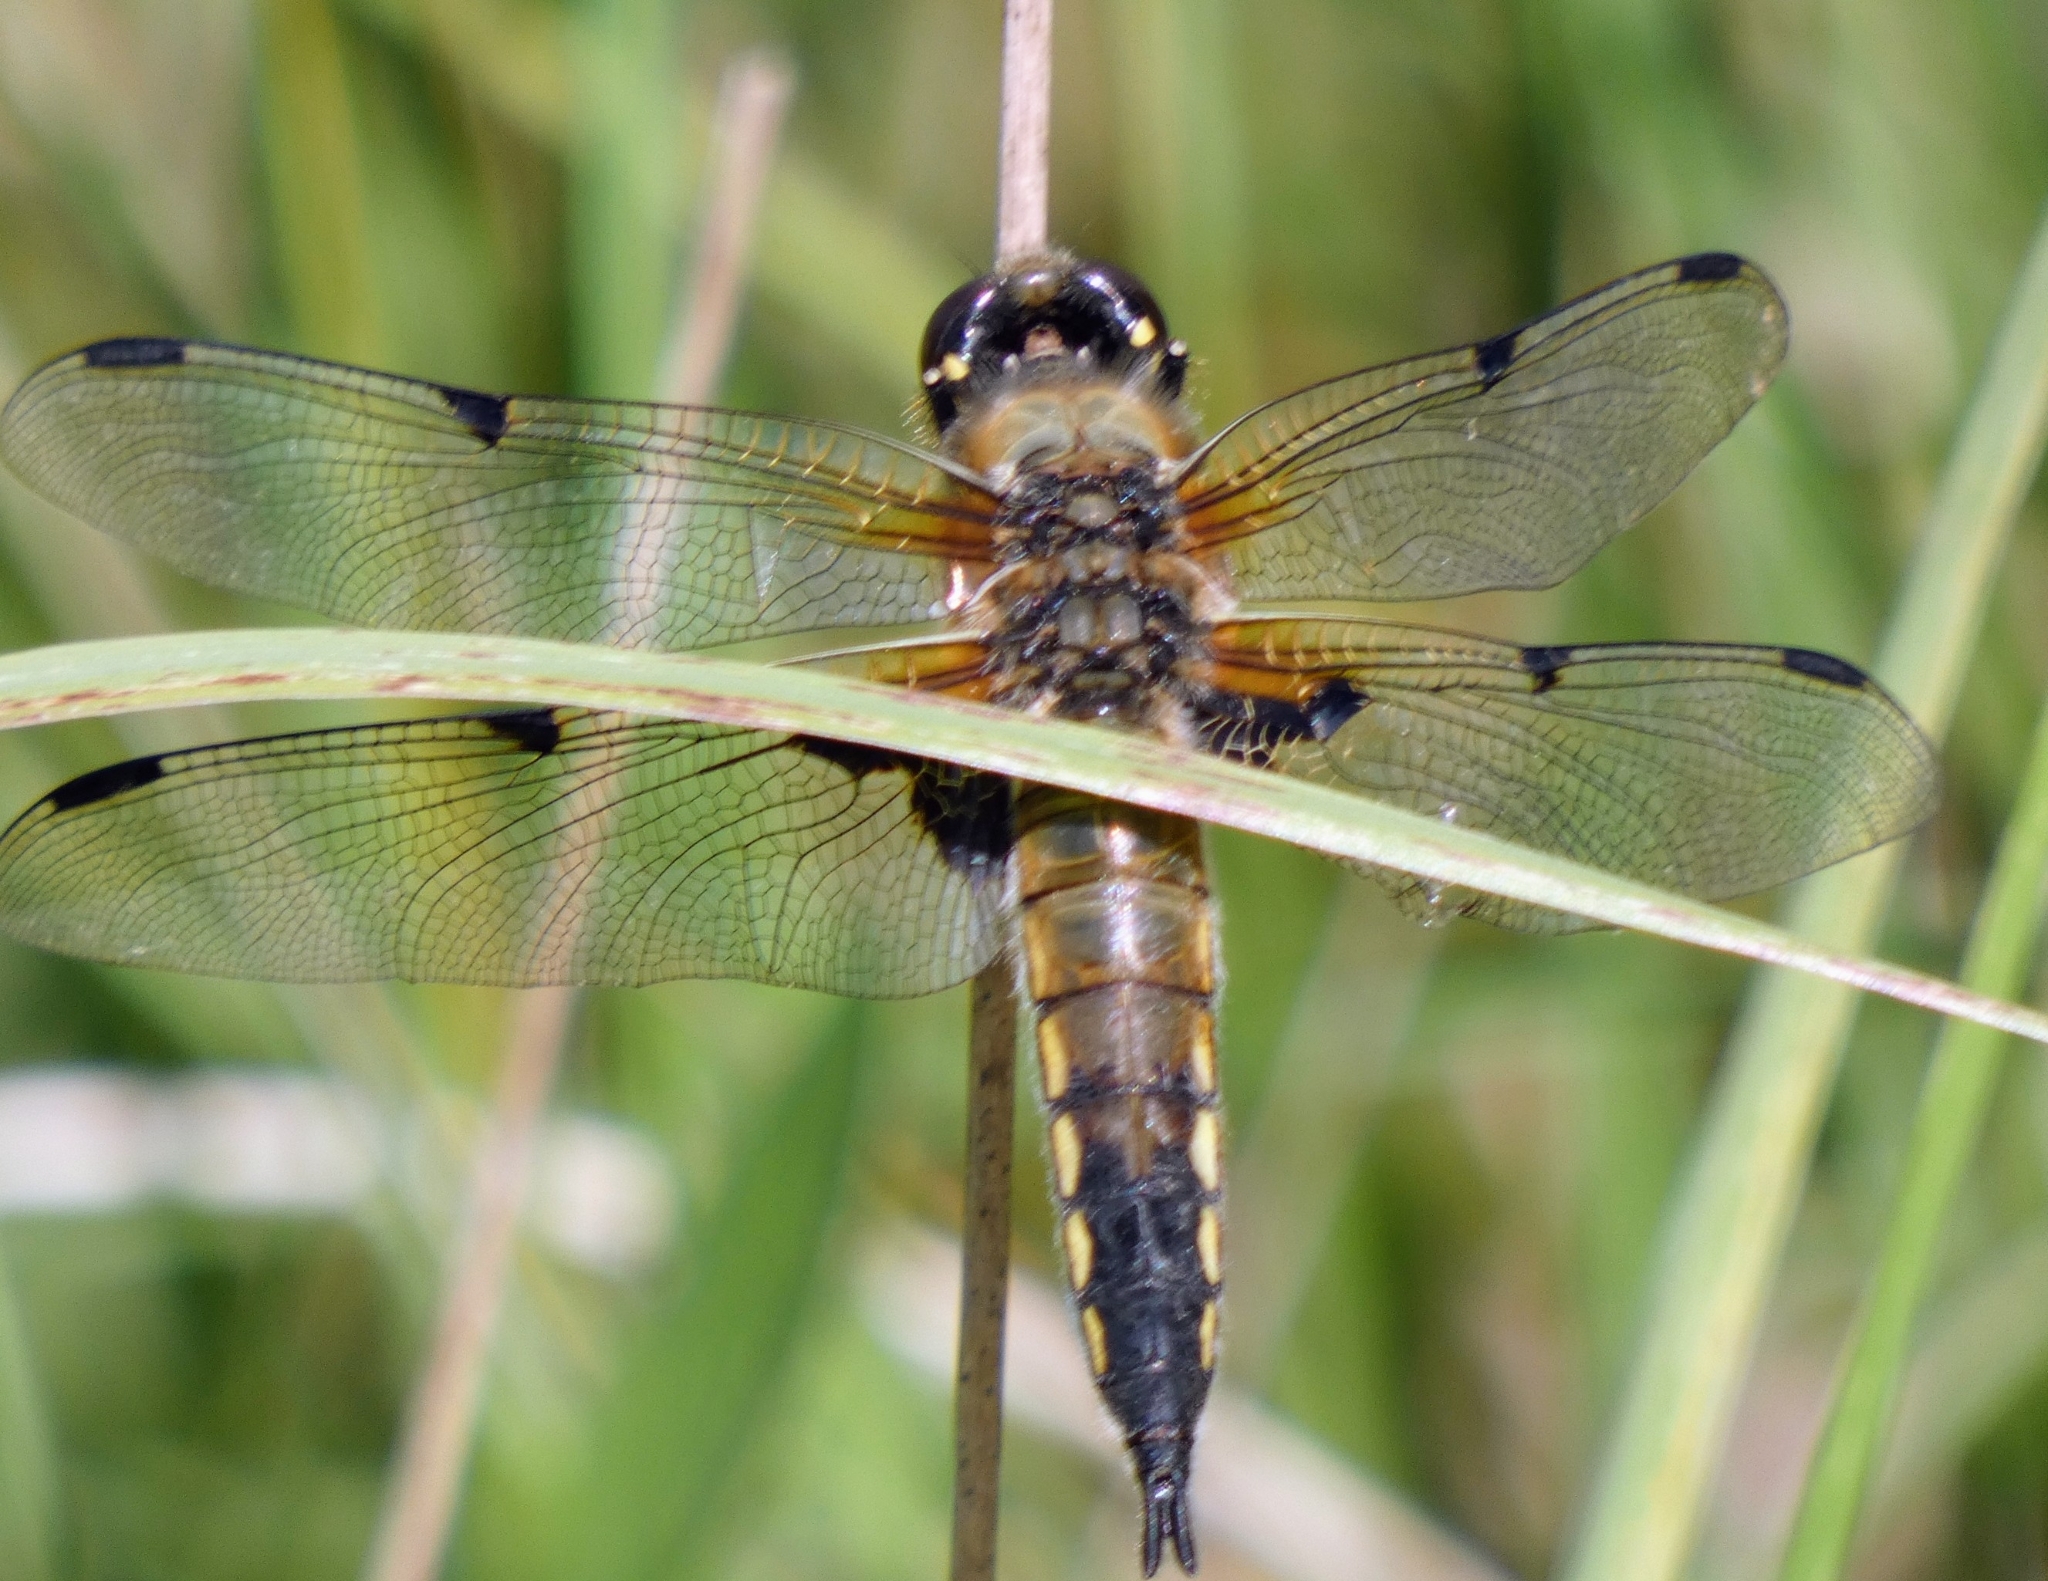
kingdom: Animalia
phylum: Arthropoda
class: Insecta
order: Odonata
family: Libellulidae
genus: Libellula
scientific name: Libellula quadrimaculata
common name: Four-spotted chaser
